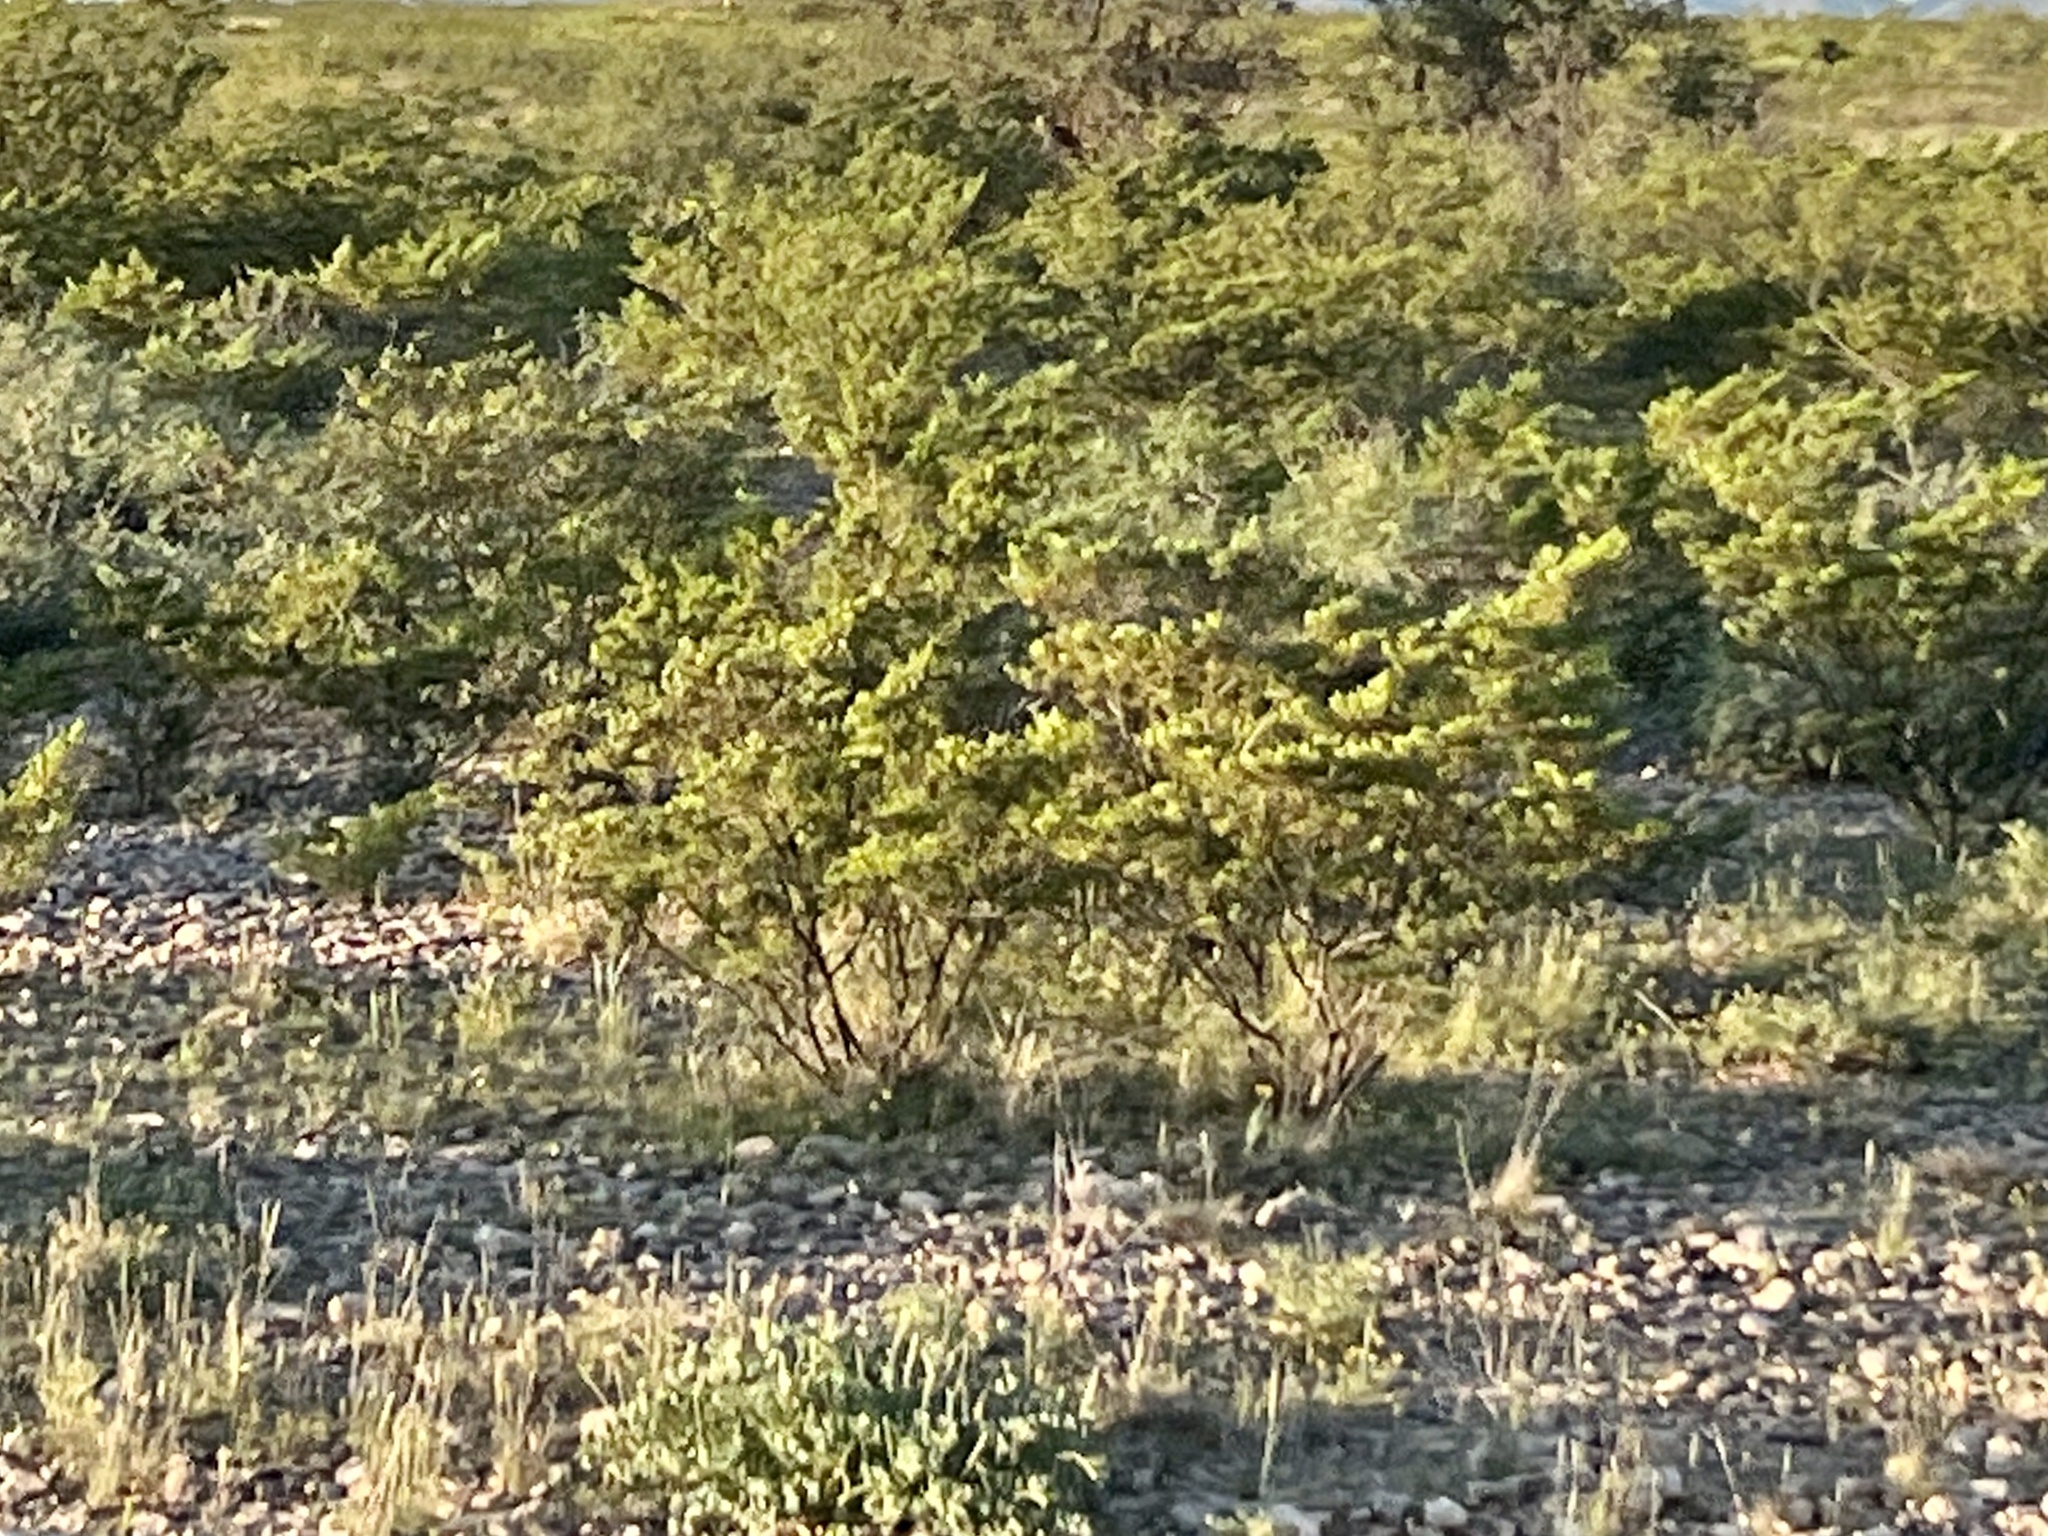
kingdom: Plantae
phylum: Tracheophyta
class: Magnoliopsida
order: Zygophyllales
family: Zygophyllaceae
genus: Larrea
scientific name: Larrea tridentata
